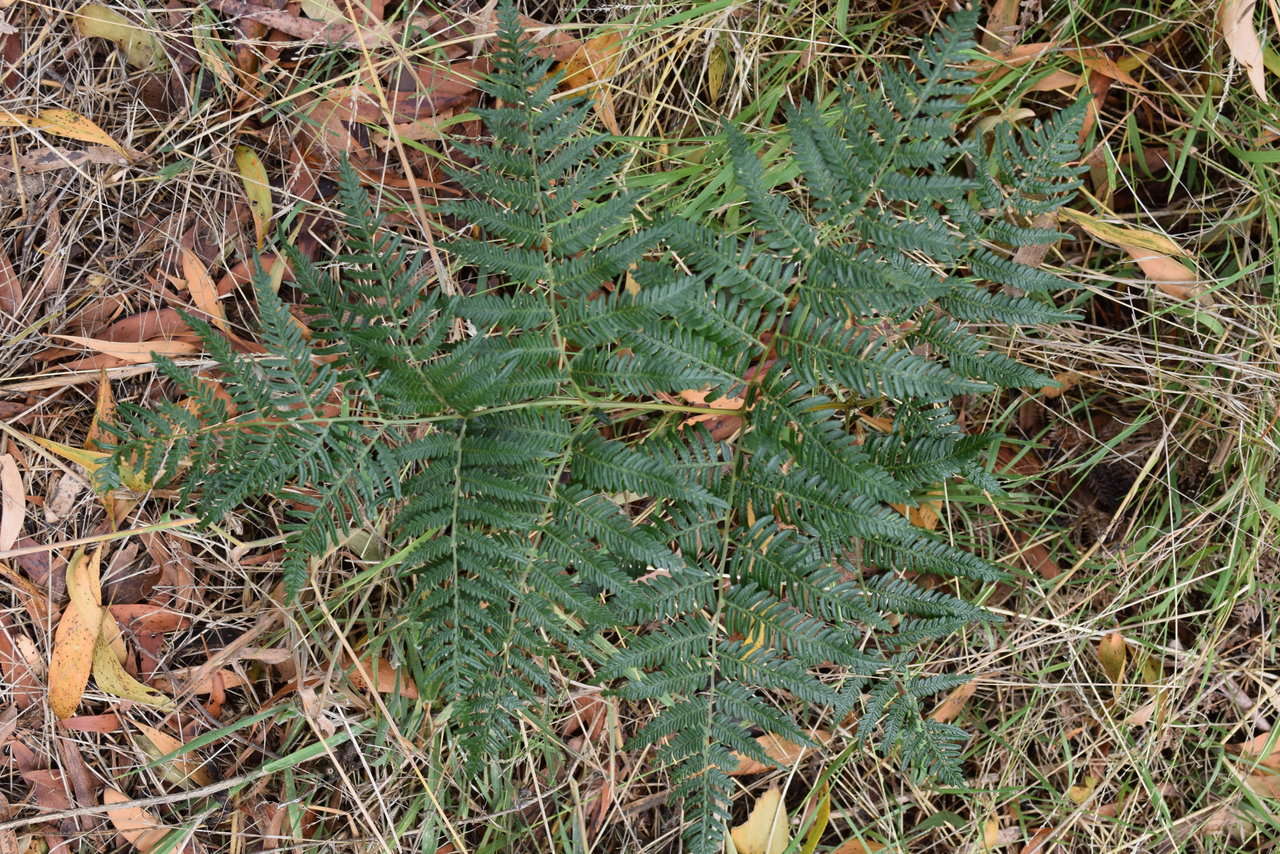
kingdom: Plantae
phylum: Tracheophyta
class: Polypodiopsida
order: Polypodiales
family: Dennstaedtiaceae
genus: Pteridium
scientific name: Pteridium esculentum
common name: Bracken fern
